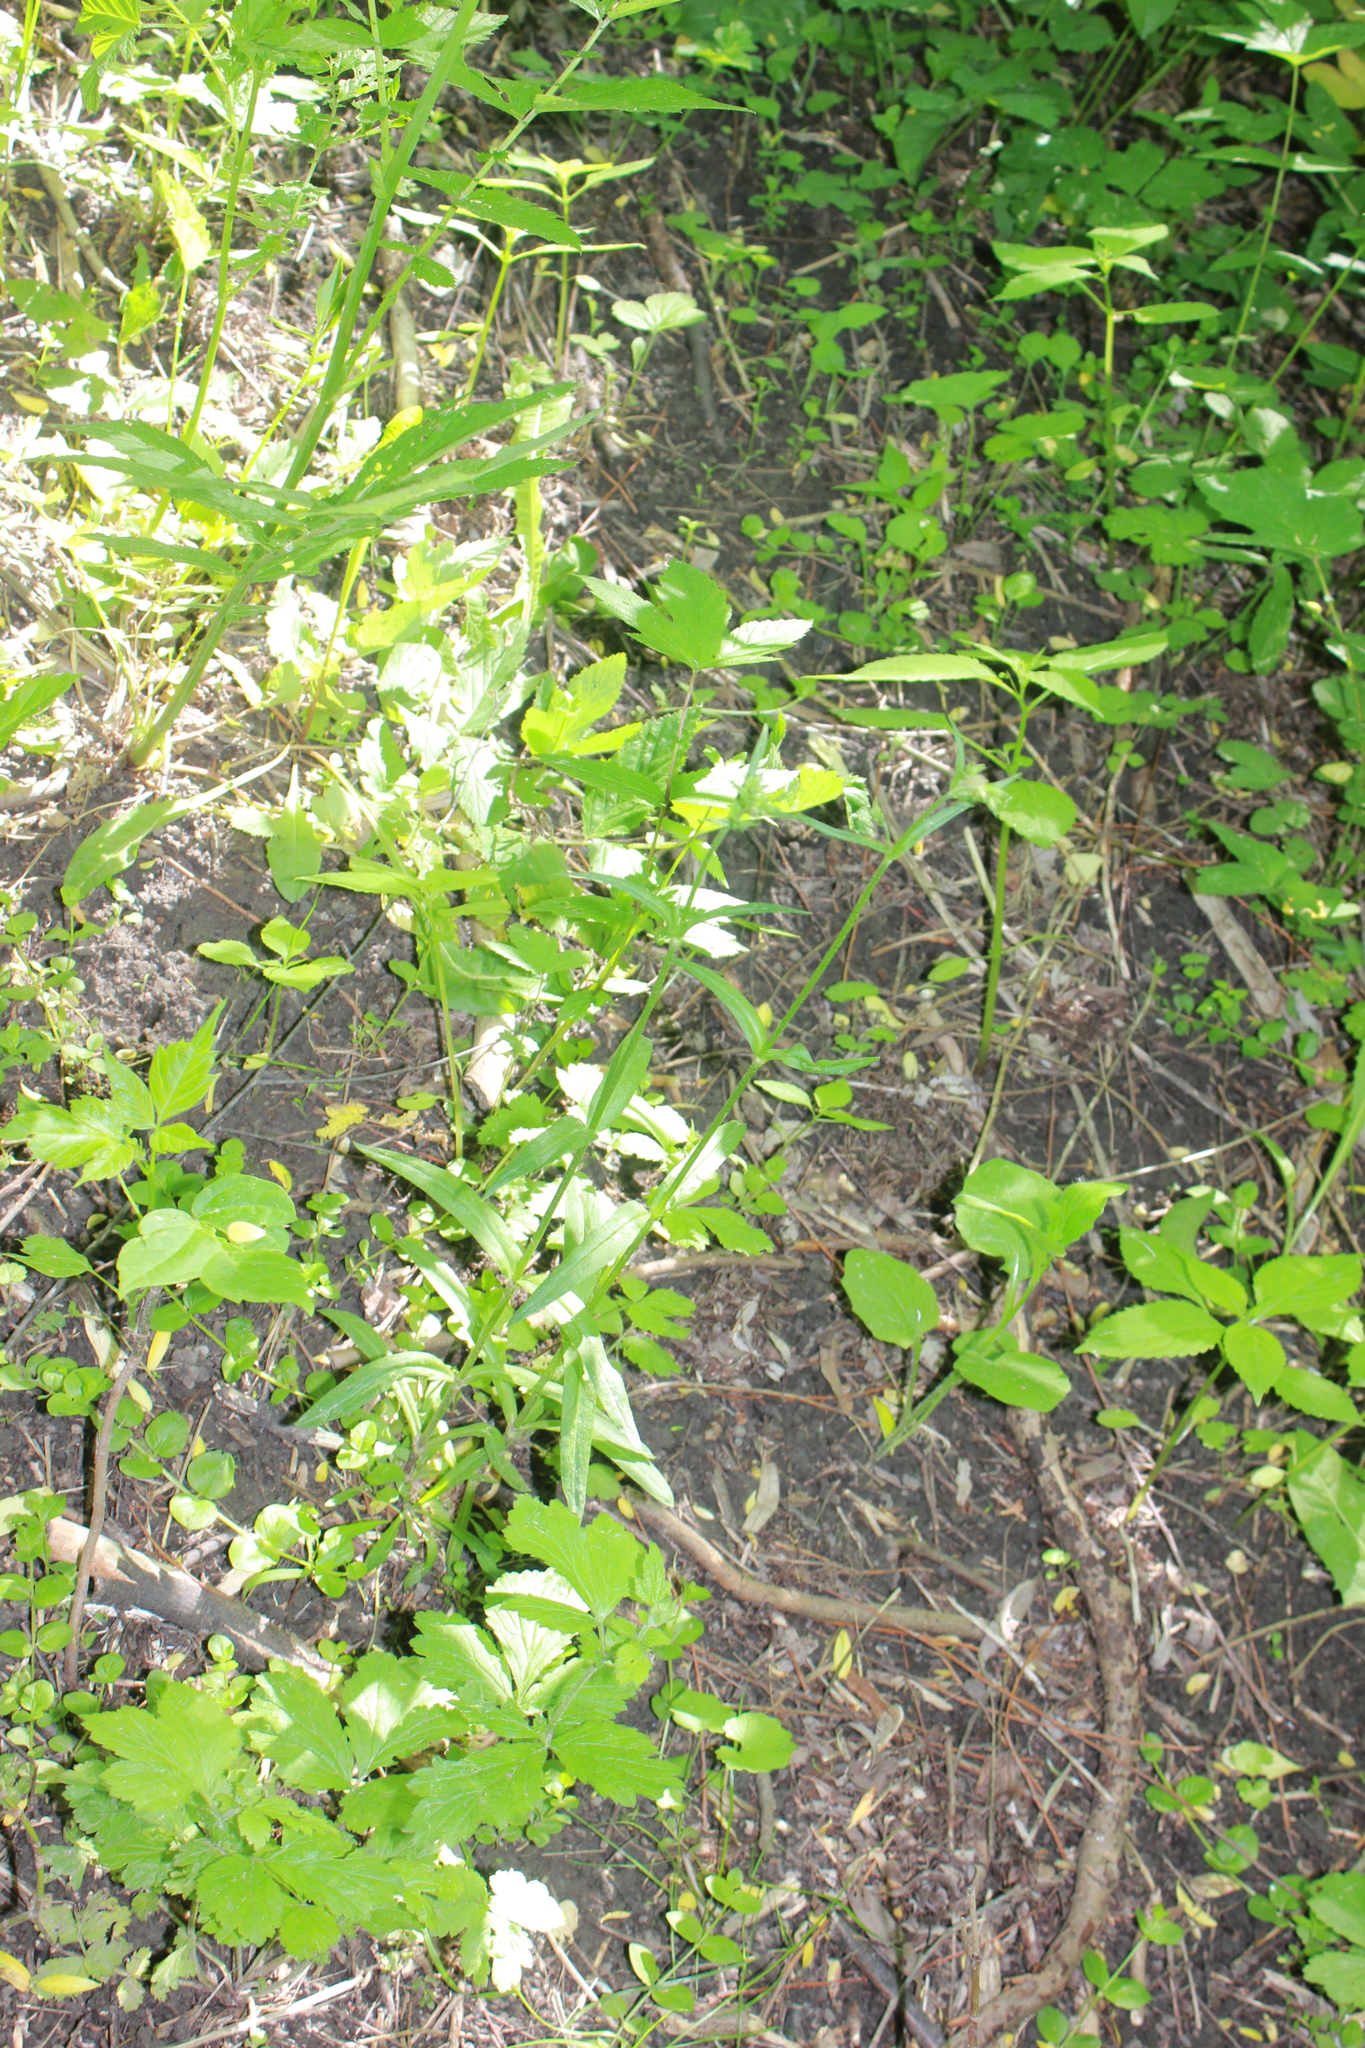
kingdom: Plantae
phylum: Tracheophyta
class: Magnoliopsida
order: Lamiales
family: Lamiaceae
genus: Stachys
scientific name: Stachys palustris
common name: Marsh woundwort
